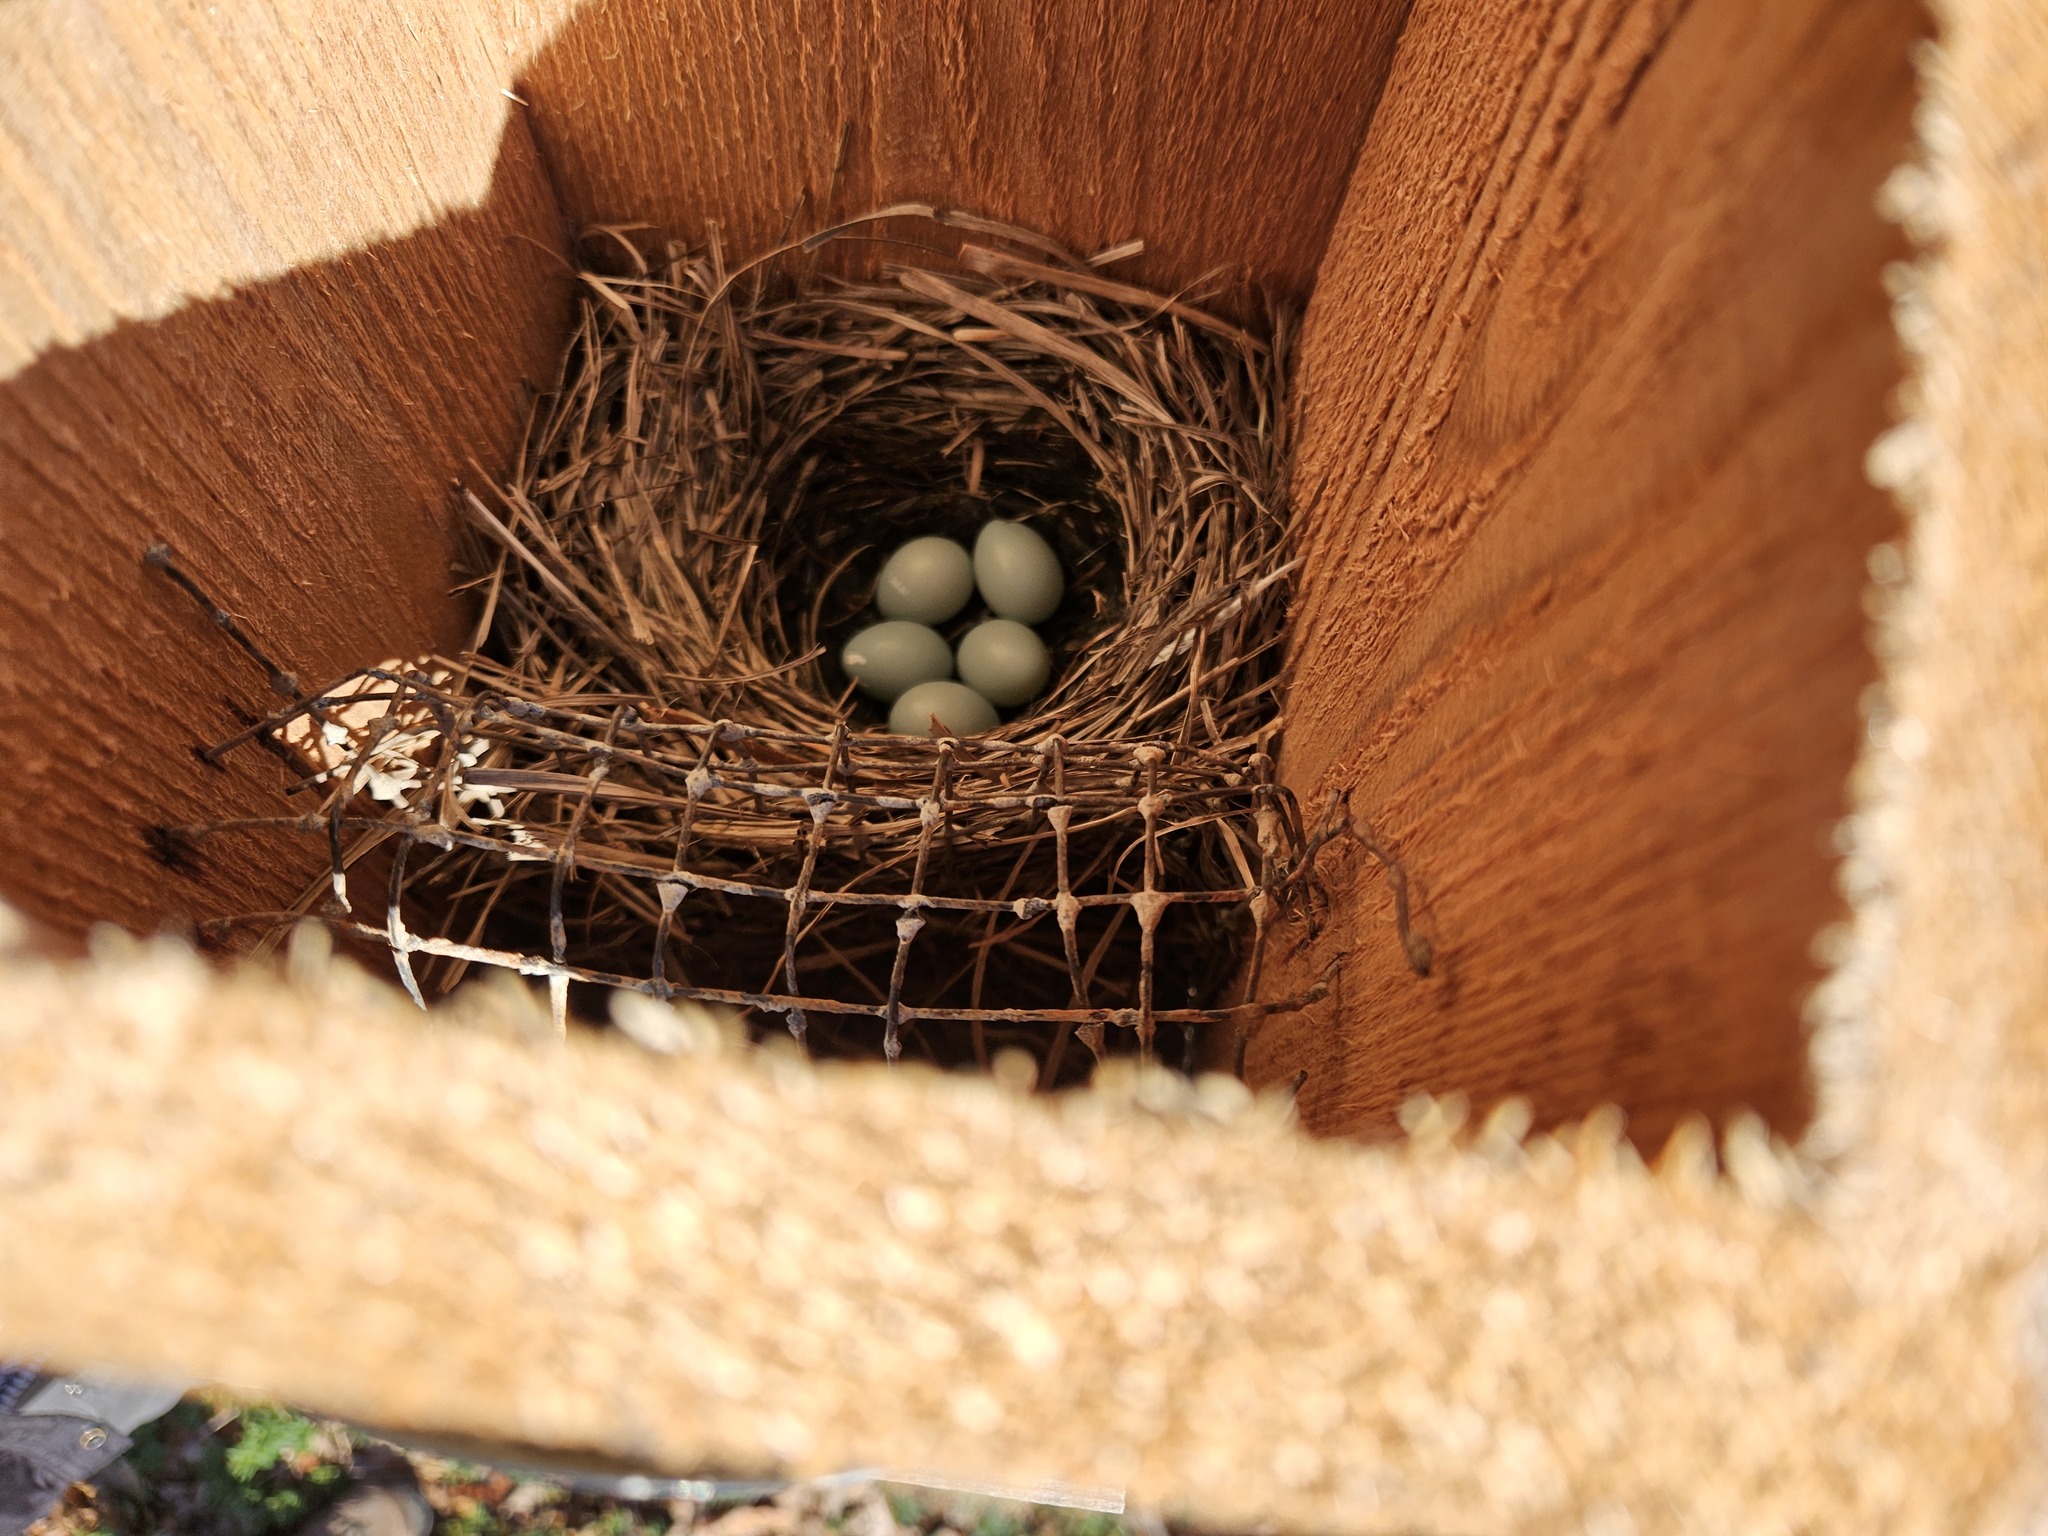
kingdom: Animalia
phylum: Chordata
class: Aves
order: Passeriformes
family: Turdidae
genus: Sialia
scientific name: Sialia sialis
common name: Eastern bluebird
